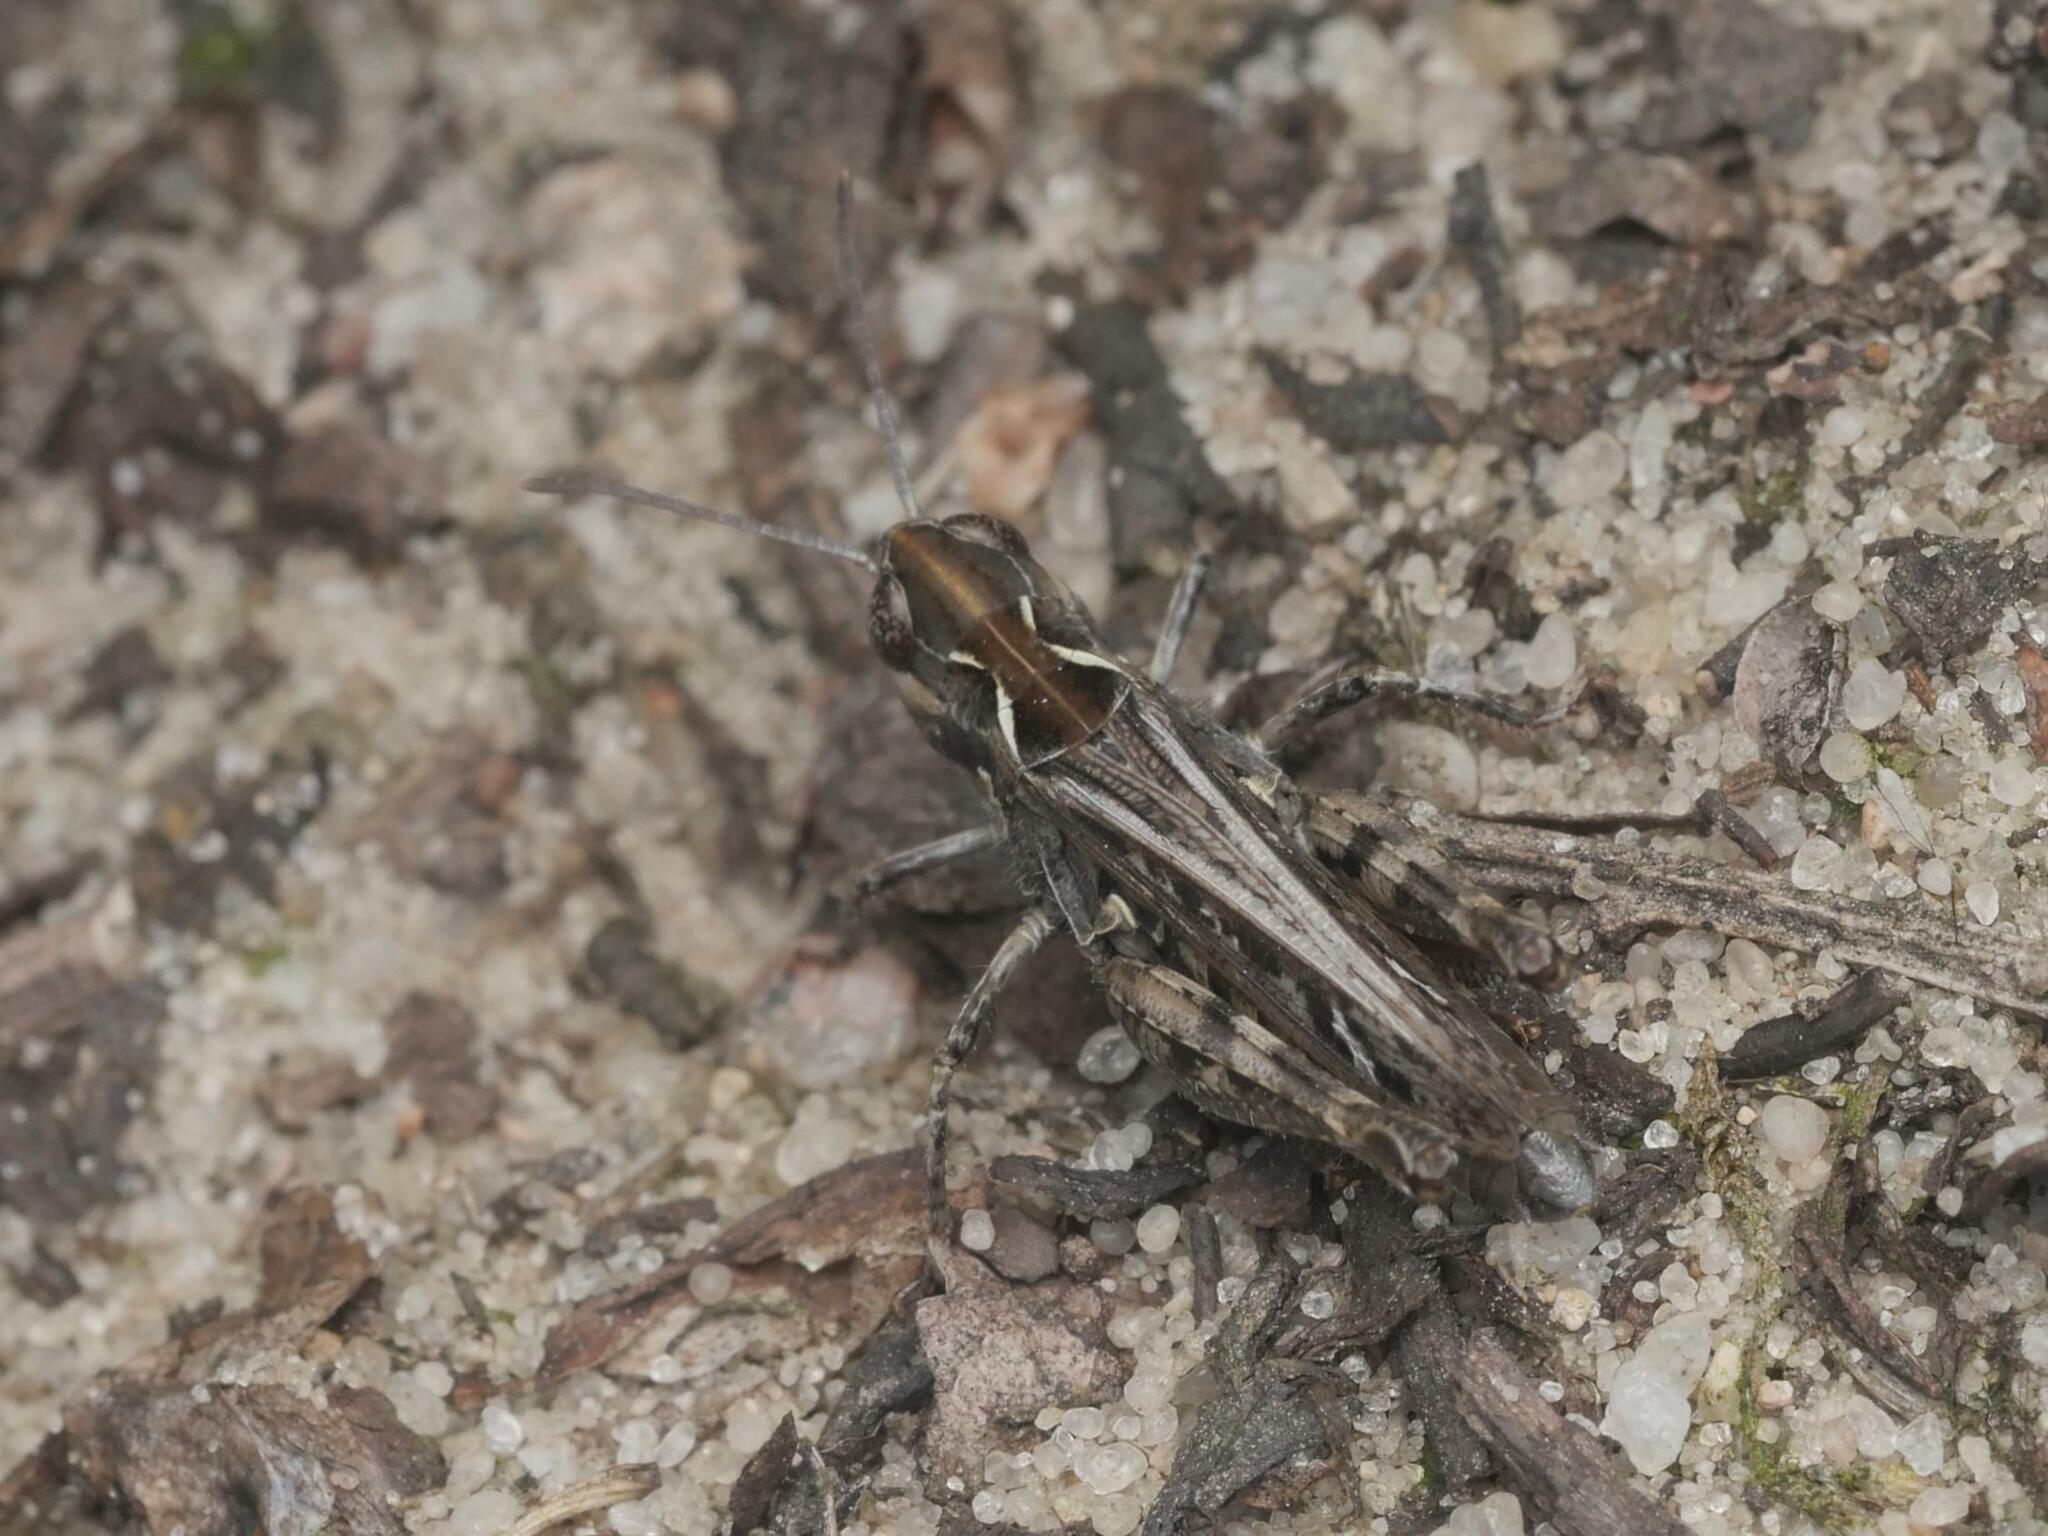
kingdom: Animalia
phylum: Arthropoda
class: Insecta
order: Orthoptera
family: Acrididae
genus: Myrmeleotettix
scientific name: Myrmeleotettix maculatus
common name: Mottled grasshopper
